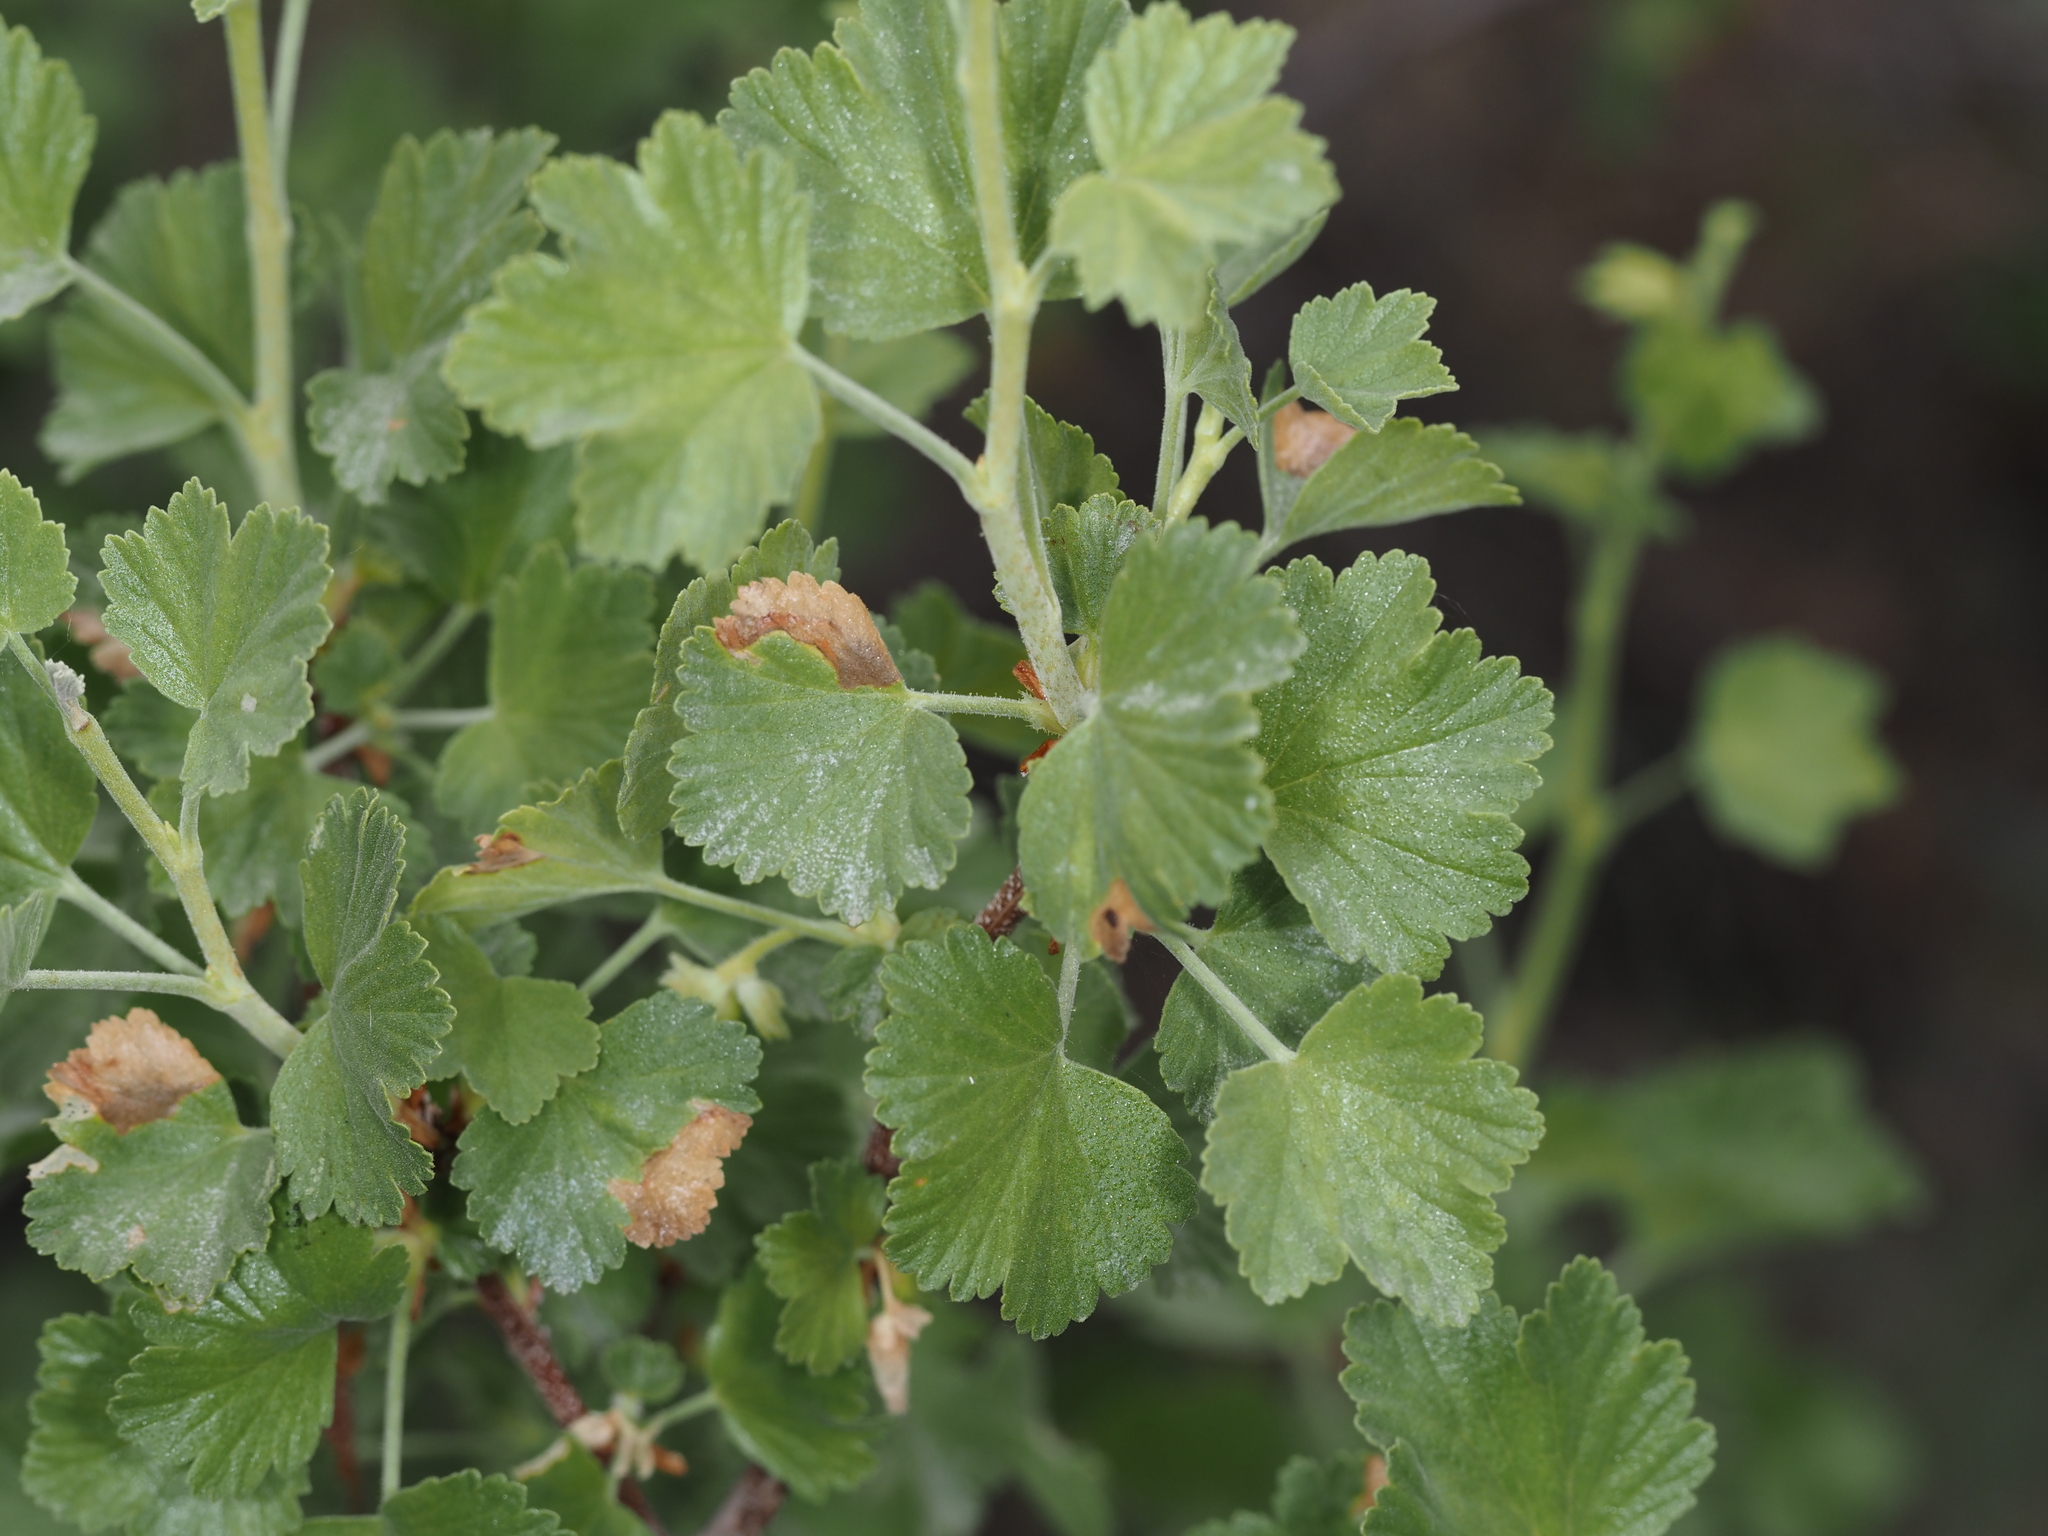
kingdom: Plantae
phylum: Tracheophyta
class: Magnoliopsida
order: Saxifragales
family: Grossulariaceae
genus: Ribes
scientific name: Ribes cereum
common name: Wax currant
